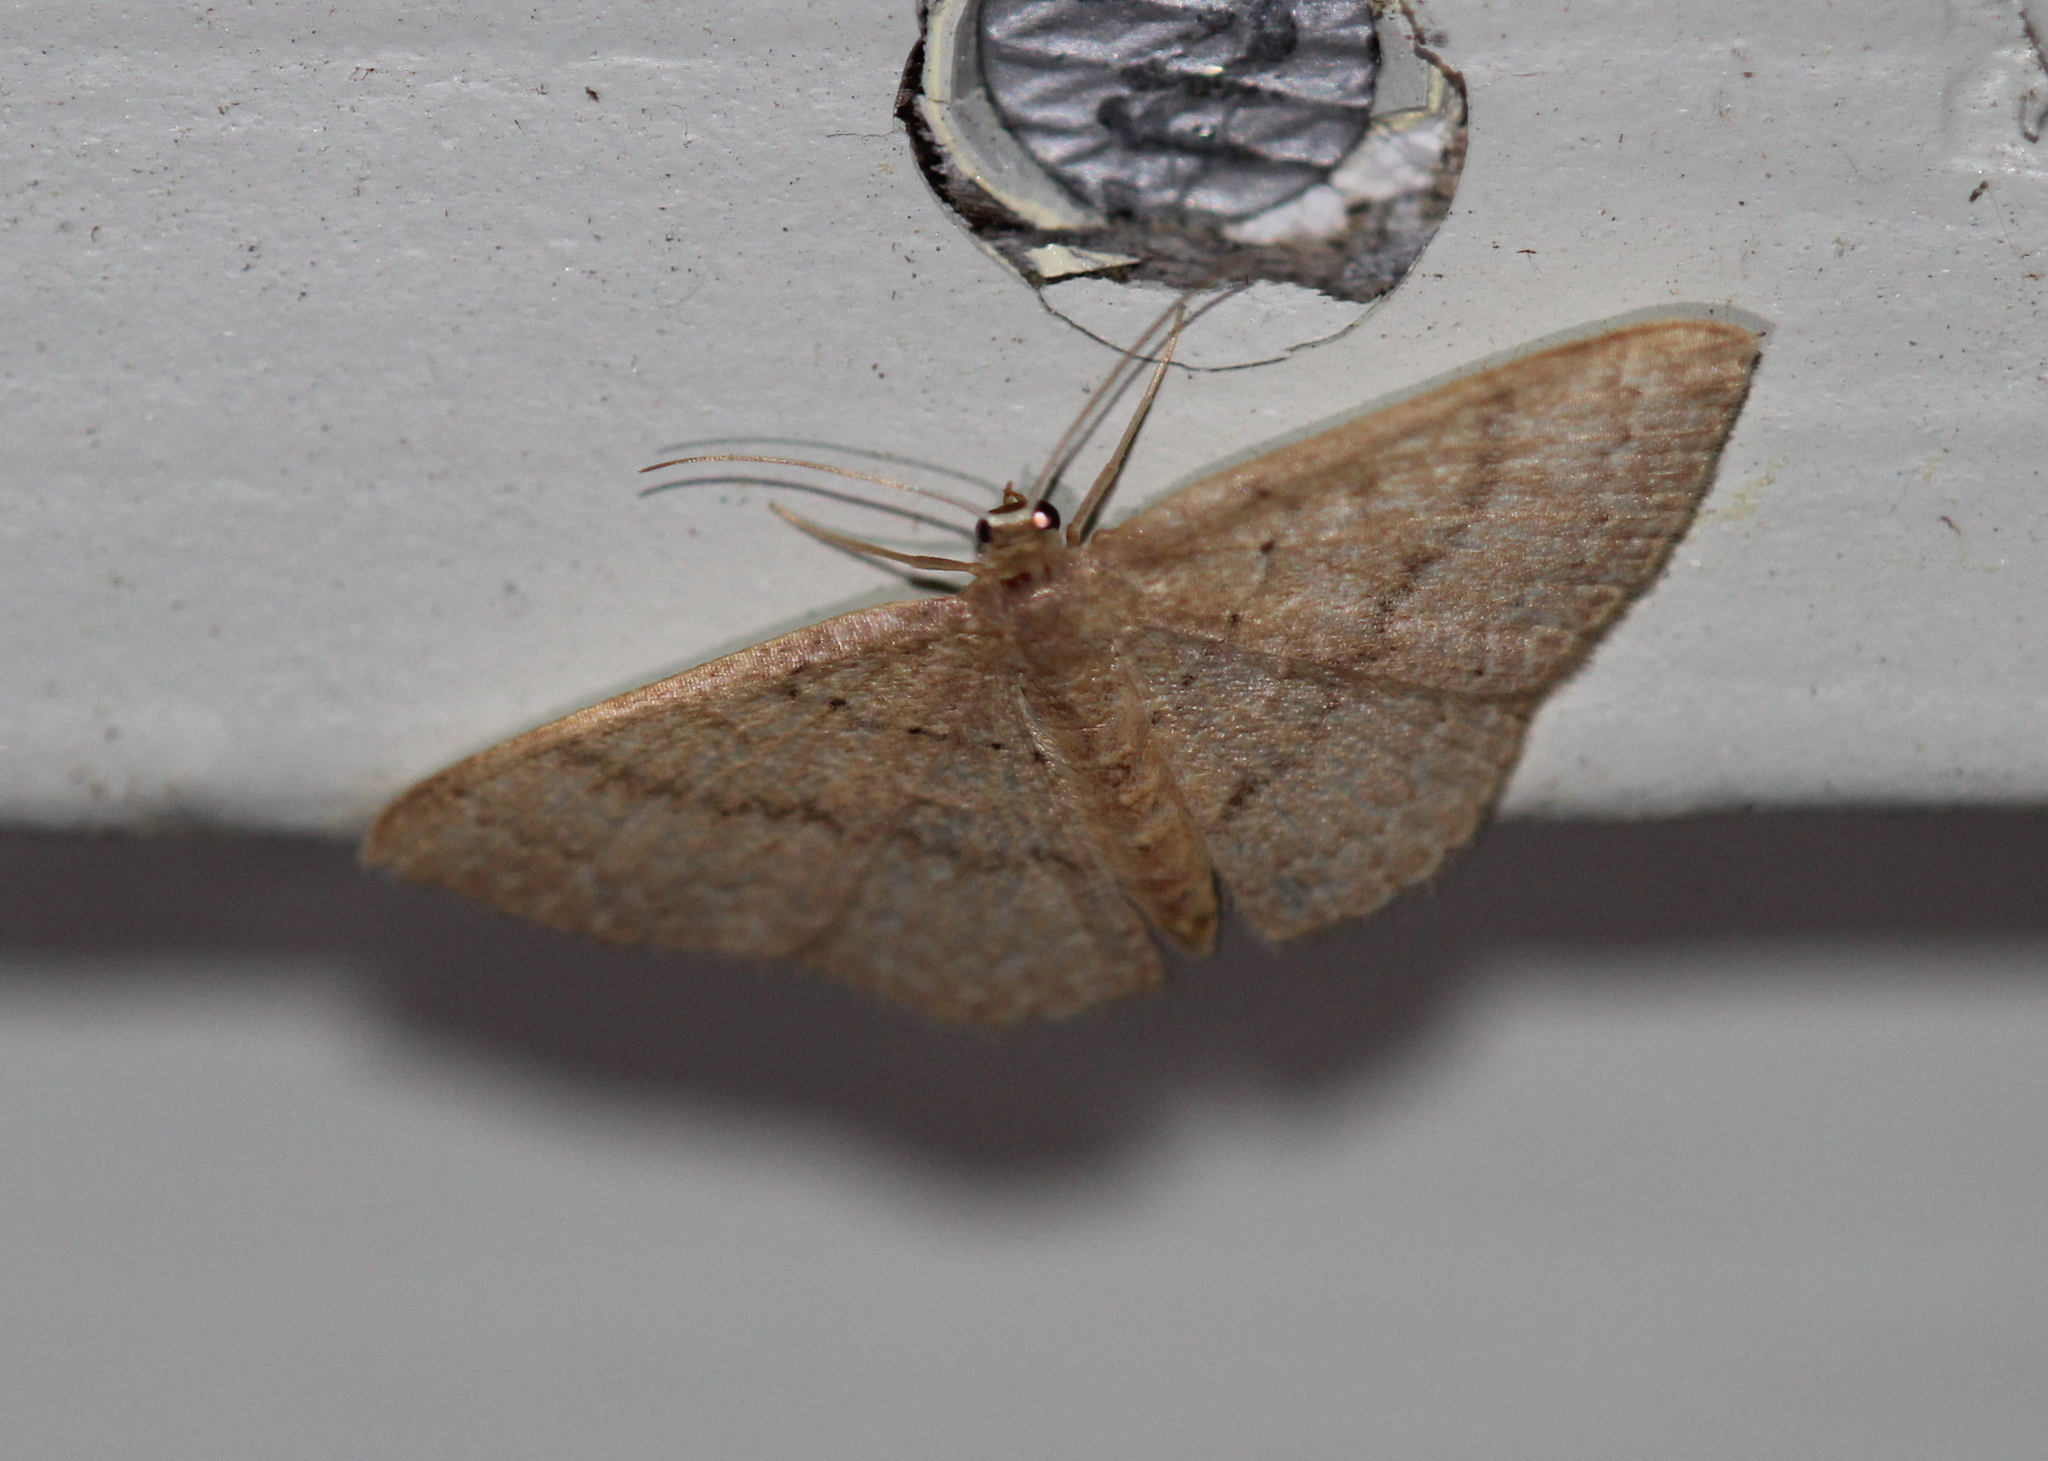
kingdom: Animalia
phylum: Arthropoda
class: Insecta
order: Lepidoptera
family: Geometridae
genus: Pleuroprucha
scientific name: Pleuroprucha insulsaria
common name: Common tan wave
